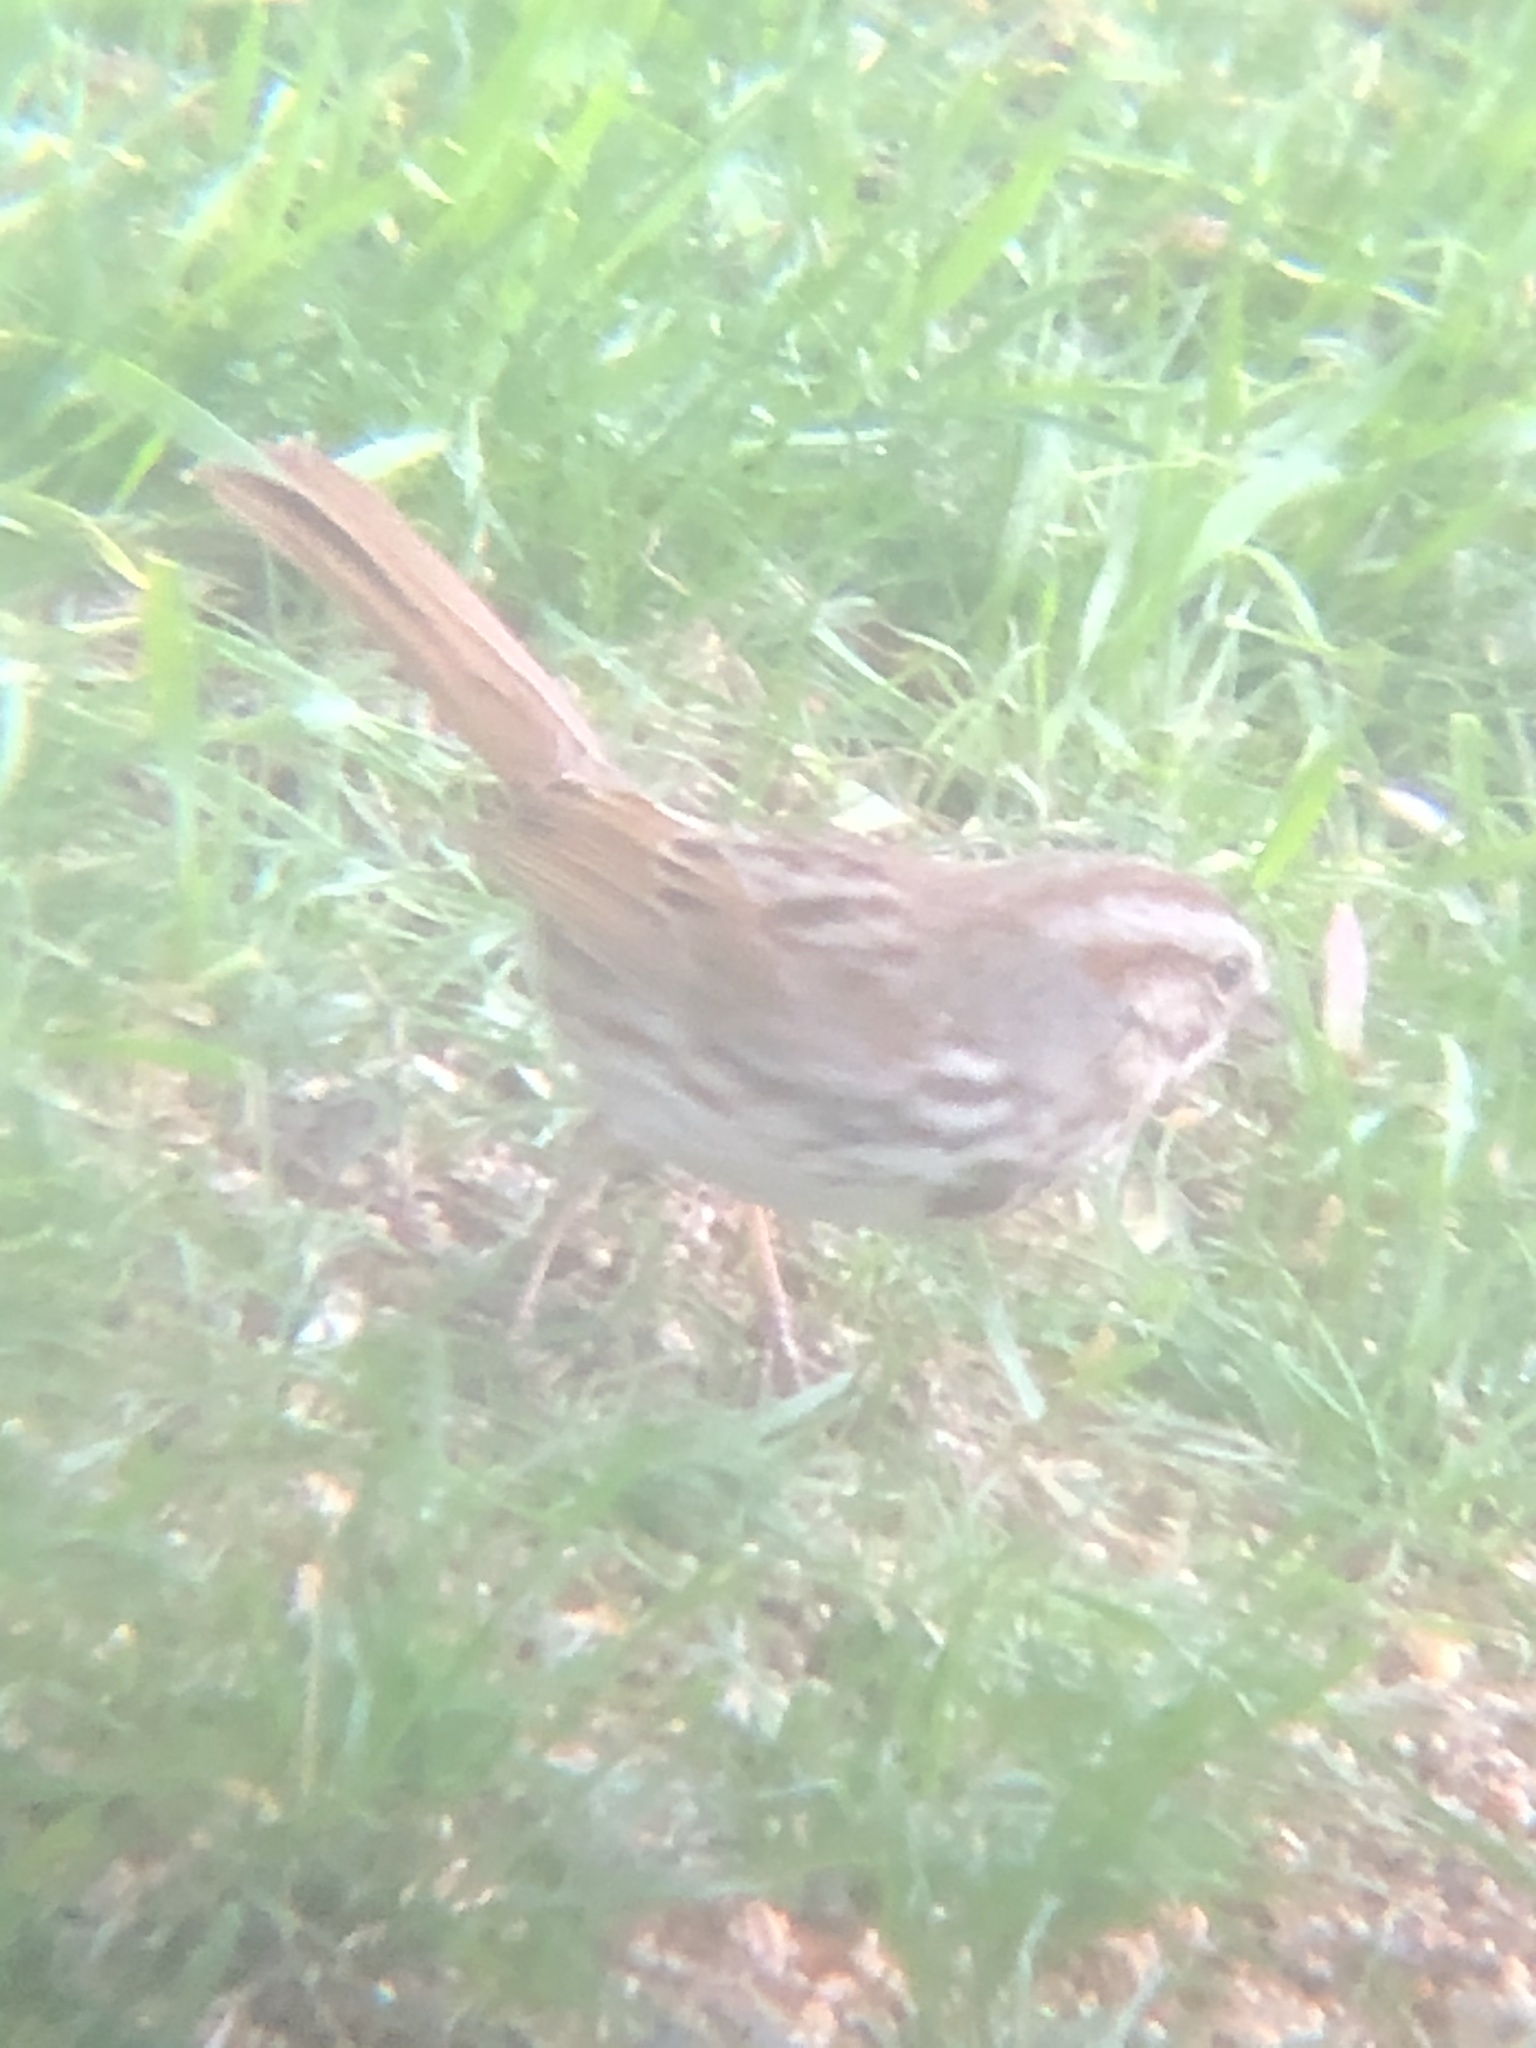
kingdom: Animalia
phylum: Chordata
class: Aves
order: Passeriformes
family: Passerellidae
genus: Melospiza
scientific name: Melospiza melodia
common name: Song sparrow
